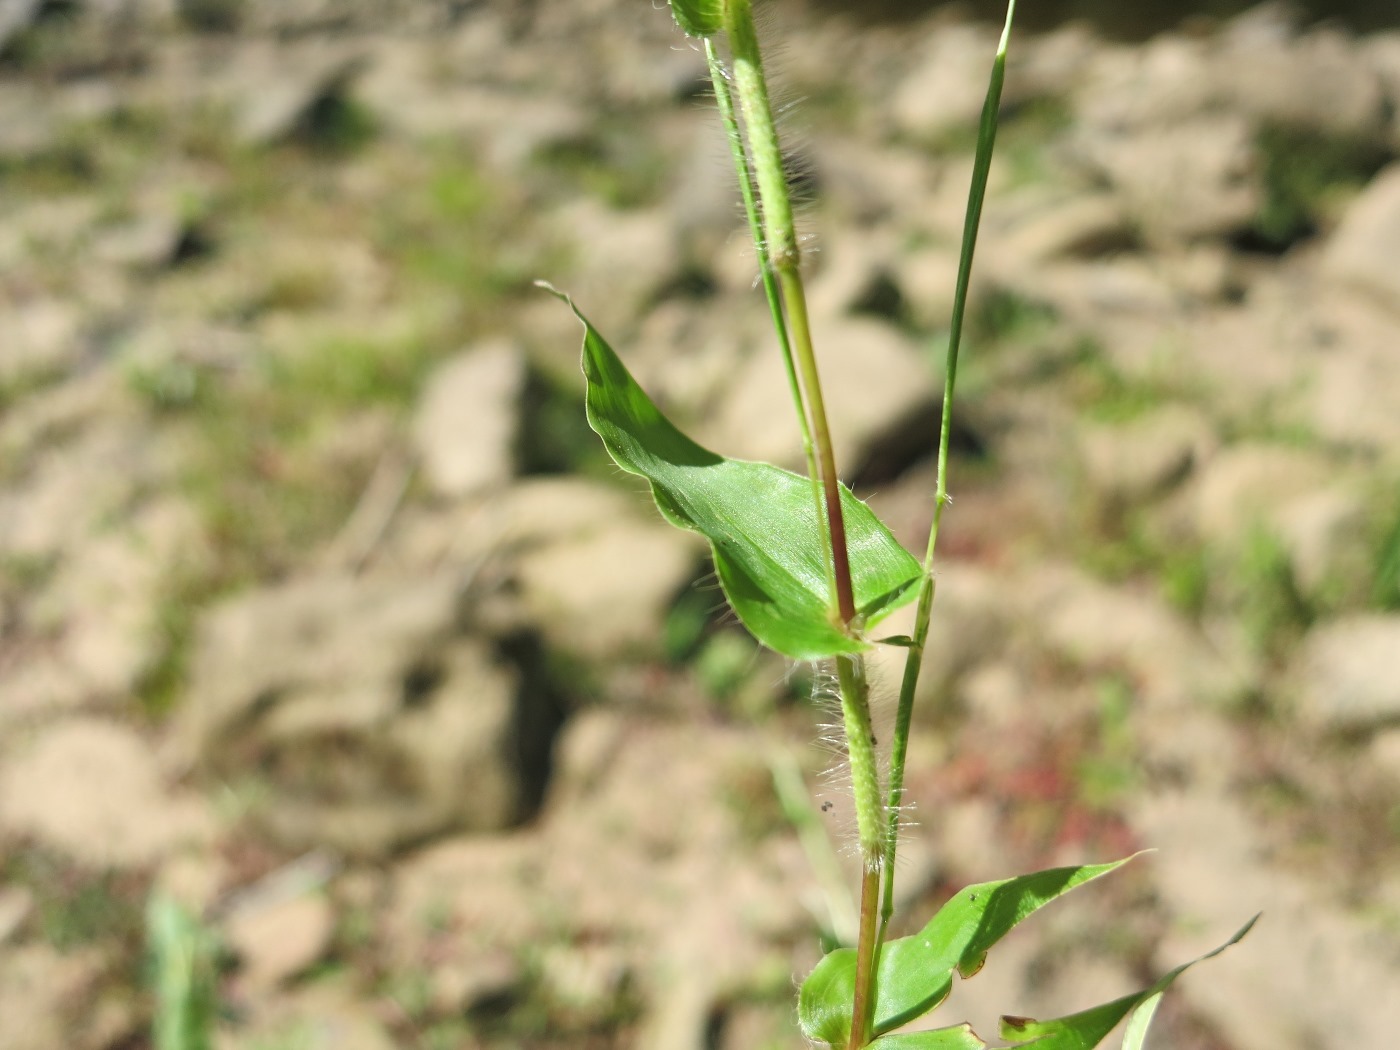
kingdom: Plantae
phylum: Tracheophyta
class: Liliopsida
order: Poales
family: Poaceae
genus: Arthraxon
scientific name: Arthraxon hispidus
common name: Small carpgrass
